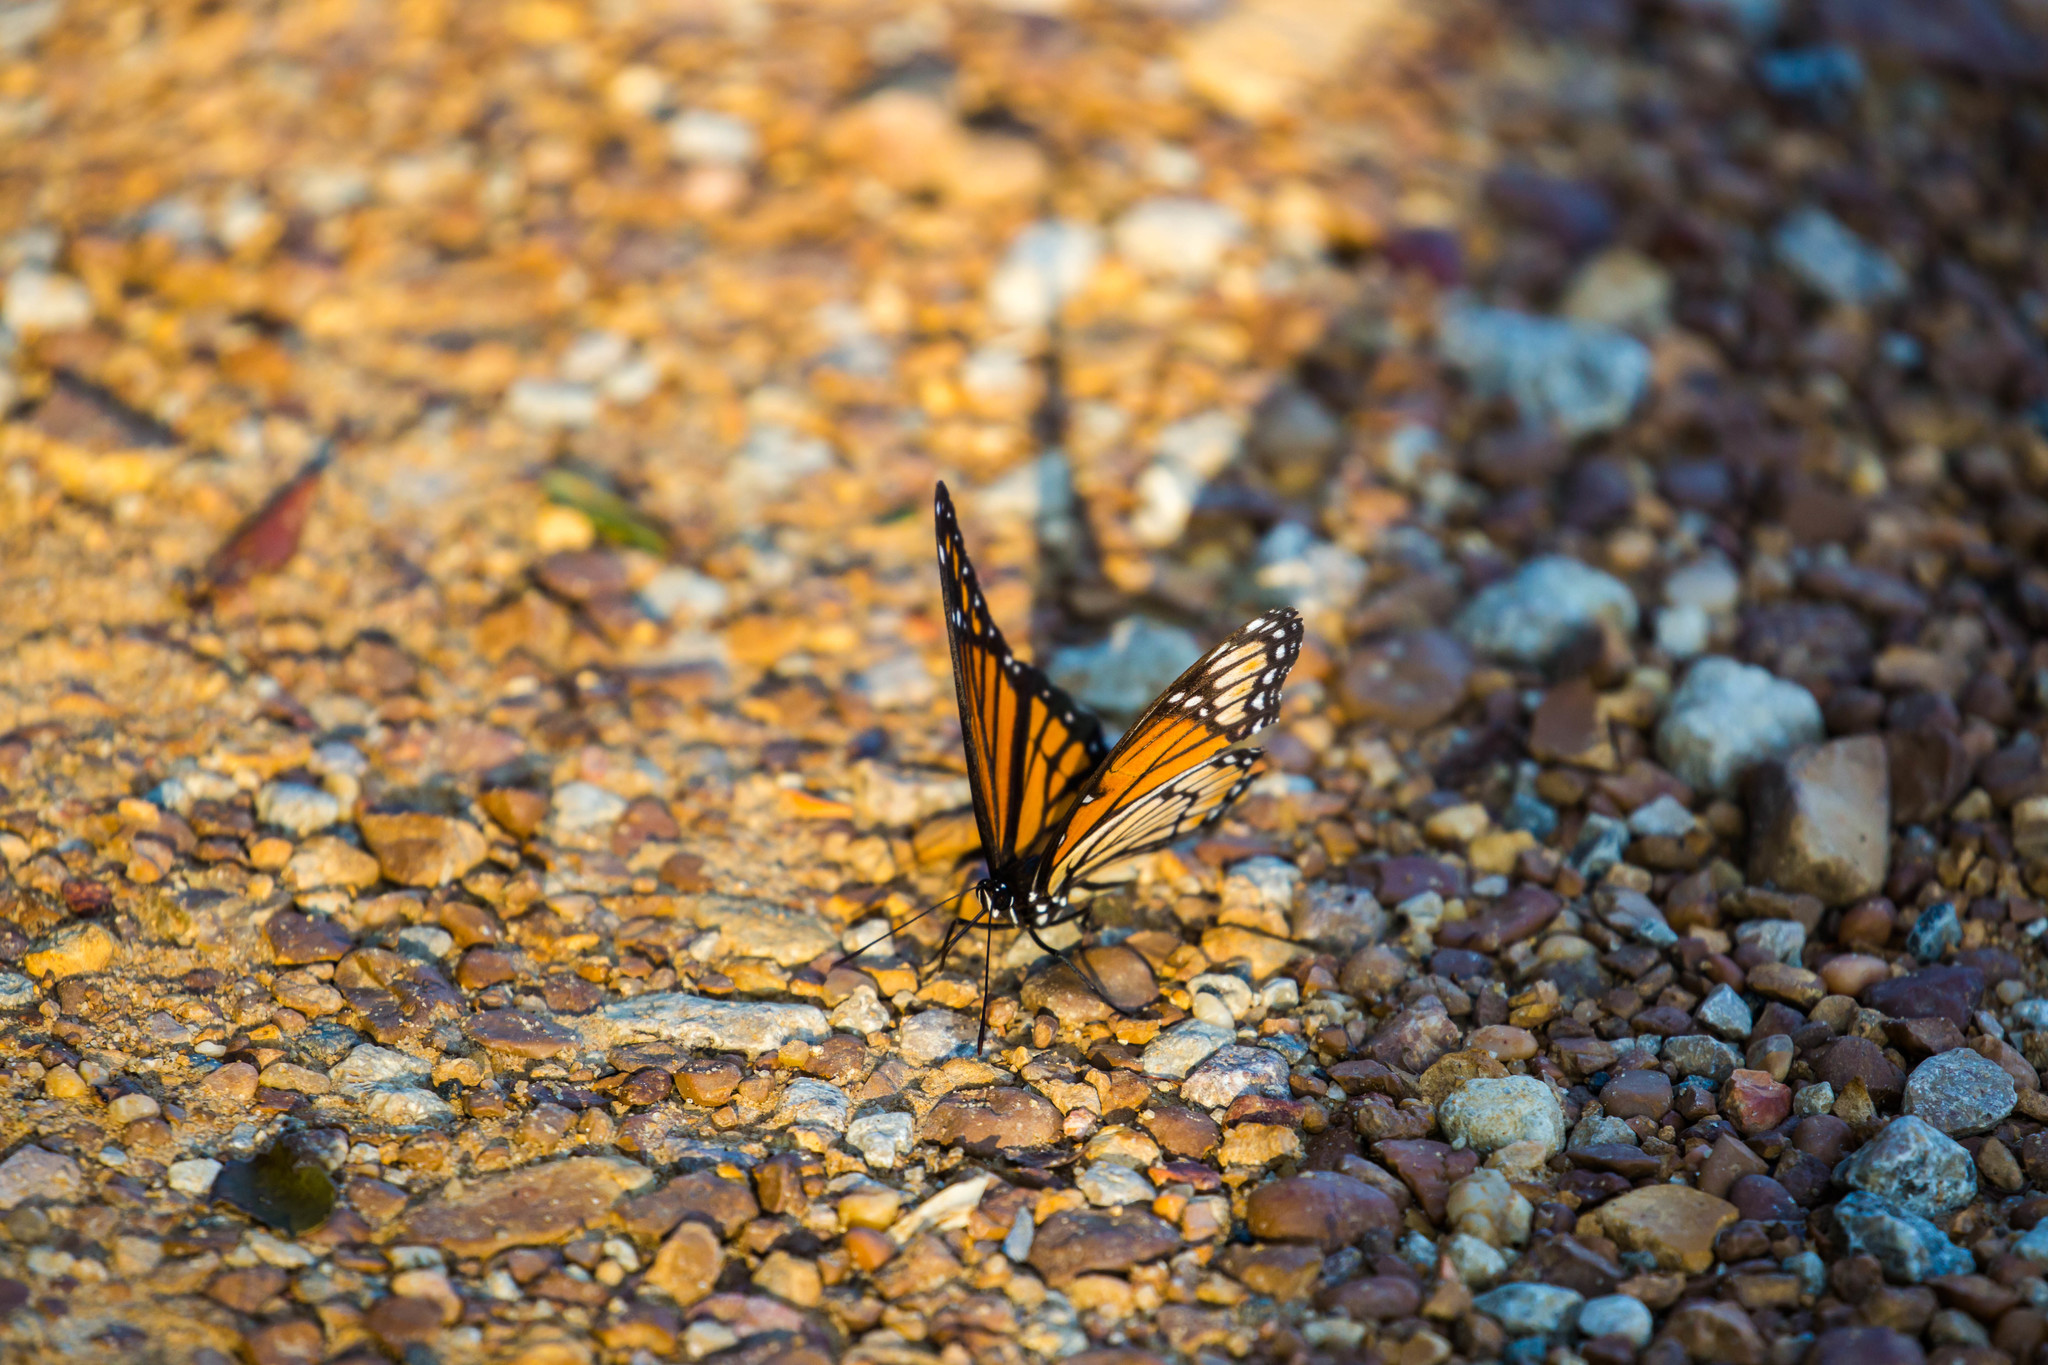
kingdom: Animalia
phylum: Arthropoda
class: Insecta
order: Lepidoptera
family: Nymphalidae
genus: Limenitis
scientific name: Limenitis archippus
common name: Viceroy
